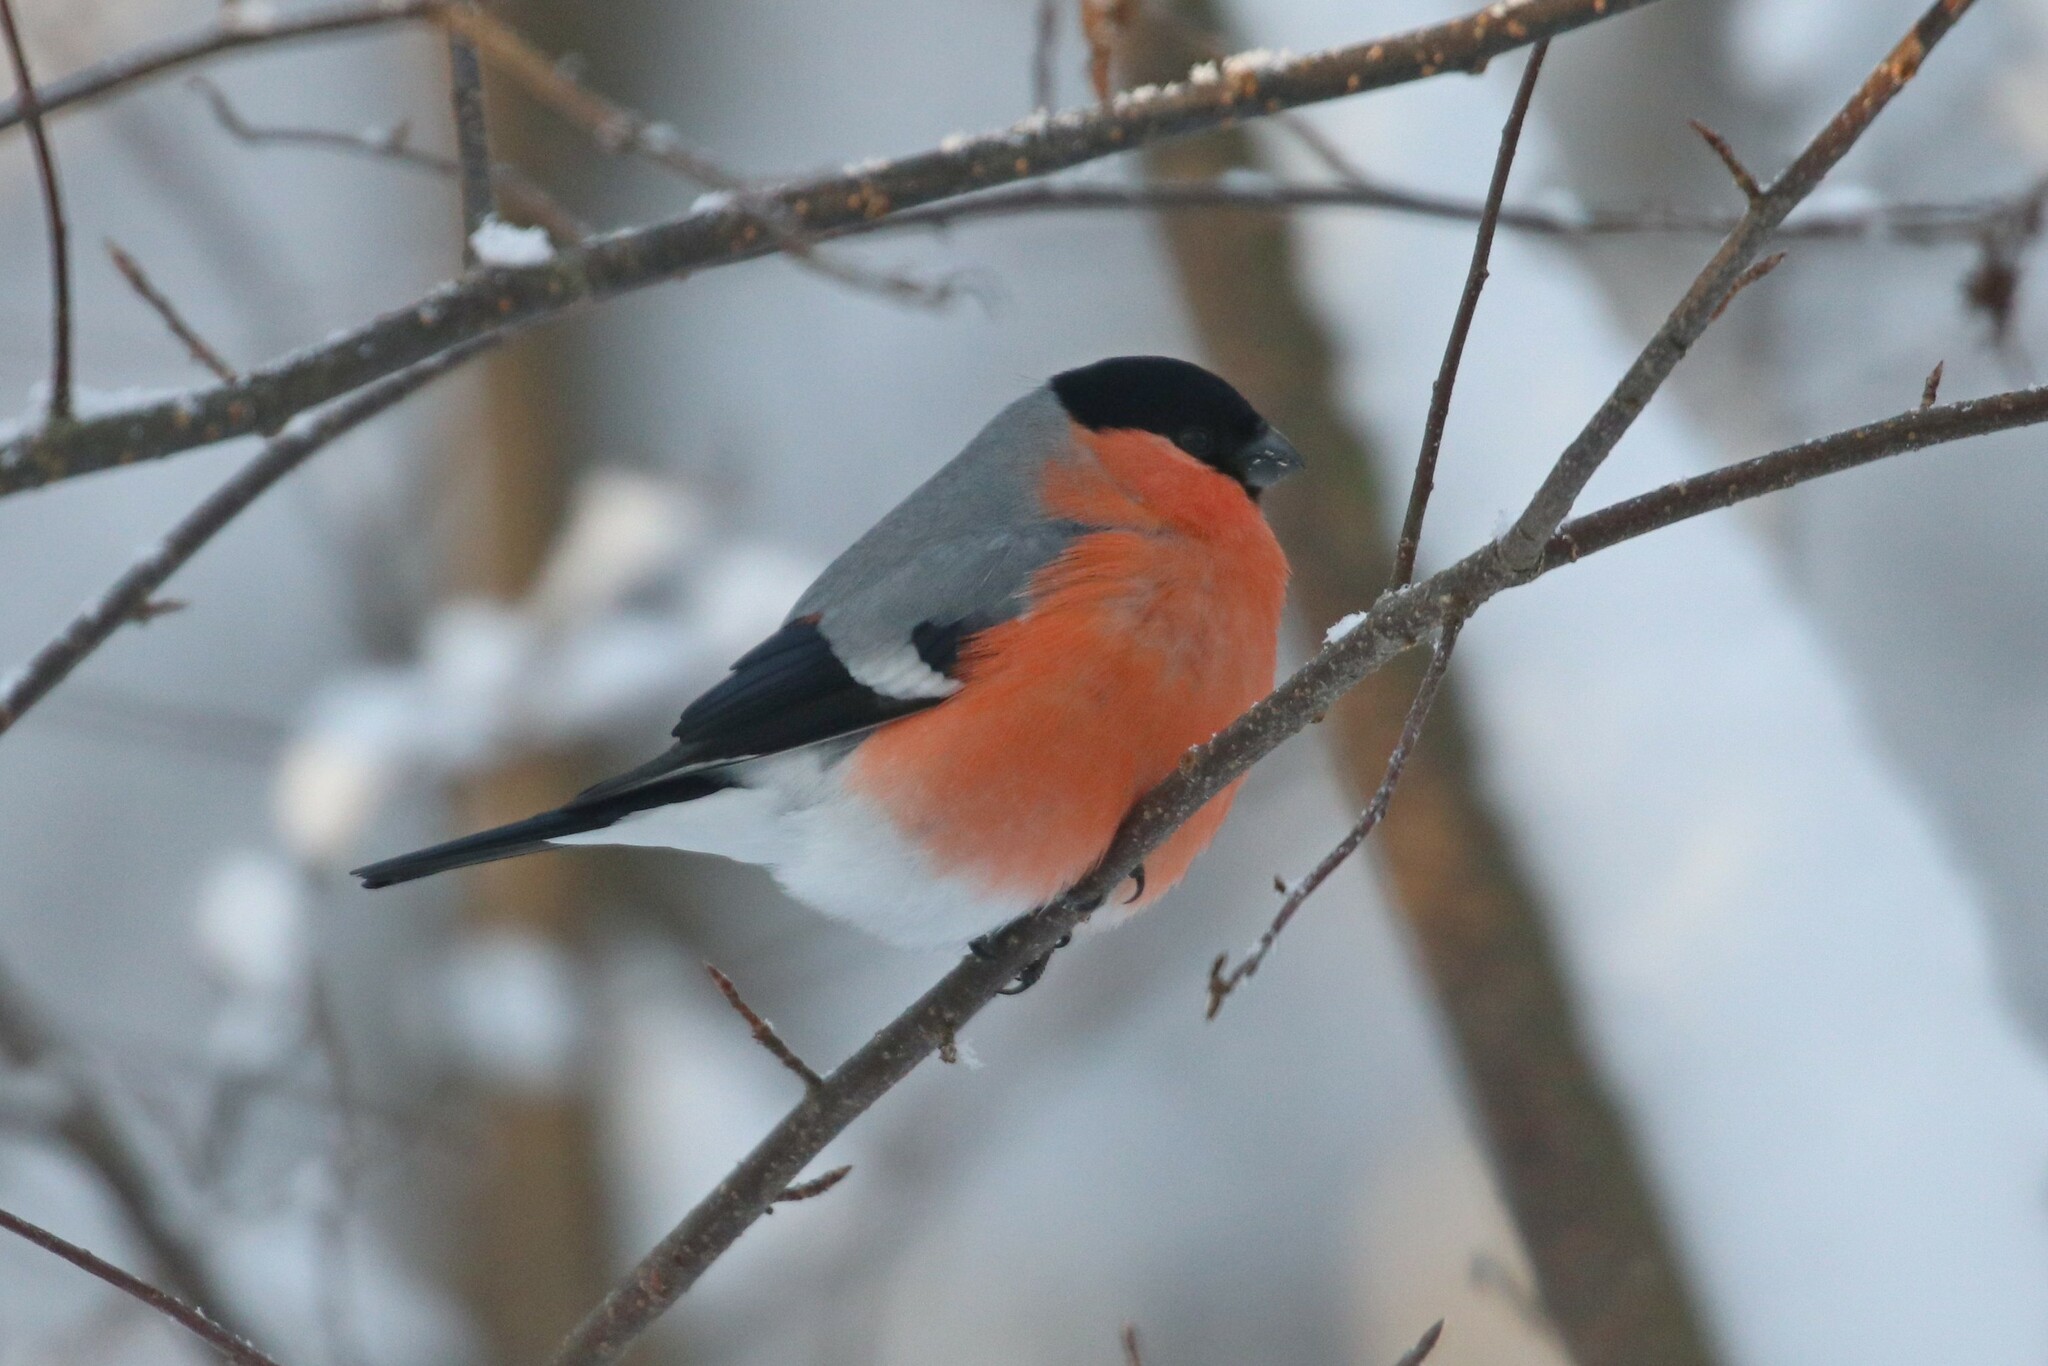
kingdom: Animalia
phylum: Chordata
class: Aves
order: Passeriformes
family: Fringillidae
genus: Pyrrhula
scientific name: Pyrrhula pyrrhula
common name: Eurasian bullfinch
